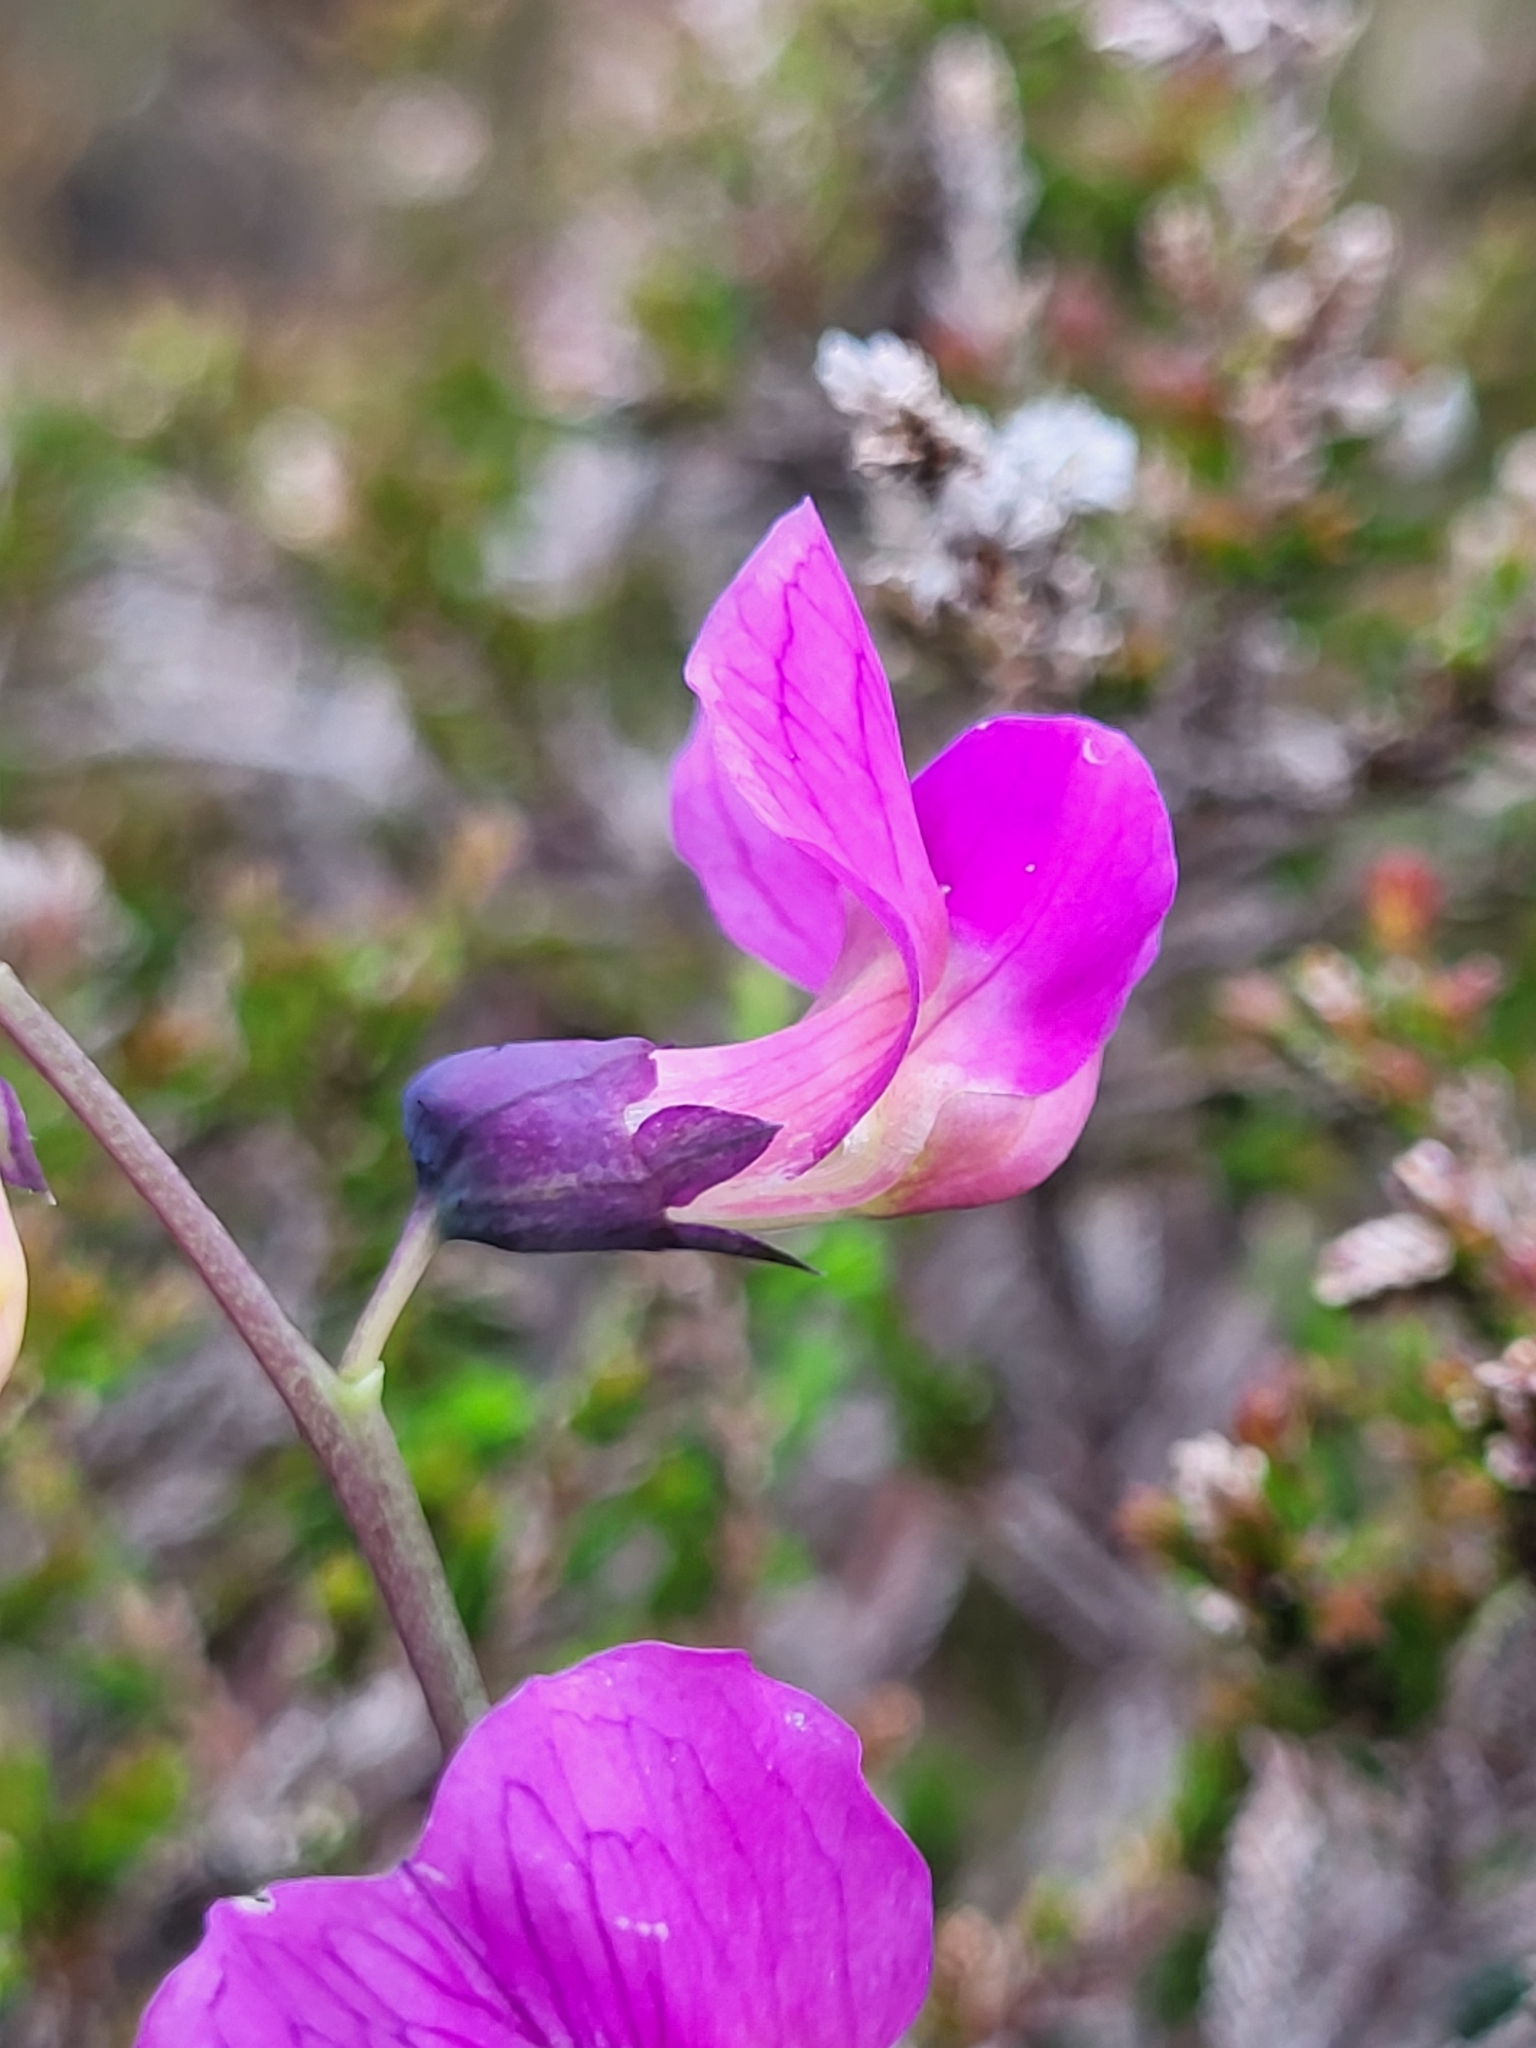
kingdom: Plantae
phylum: Tracheophyta
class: Magnoliopsida
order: Fabales
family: Fabaceae
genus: Lathyrus
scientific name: Lathyrus linifolius
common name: Bitter-vetch
